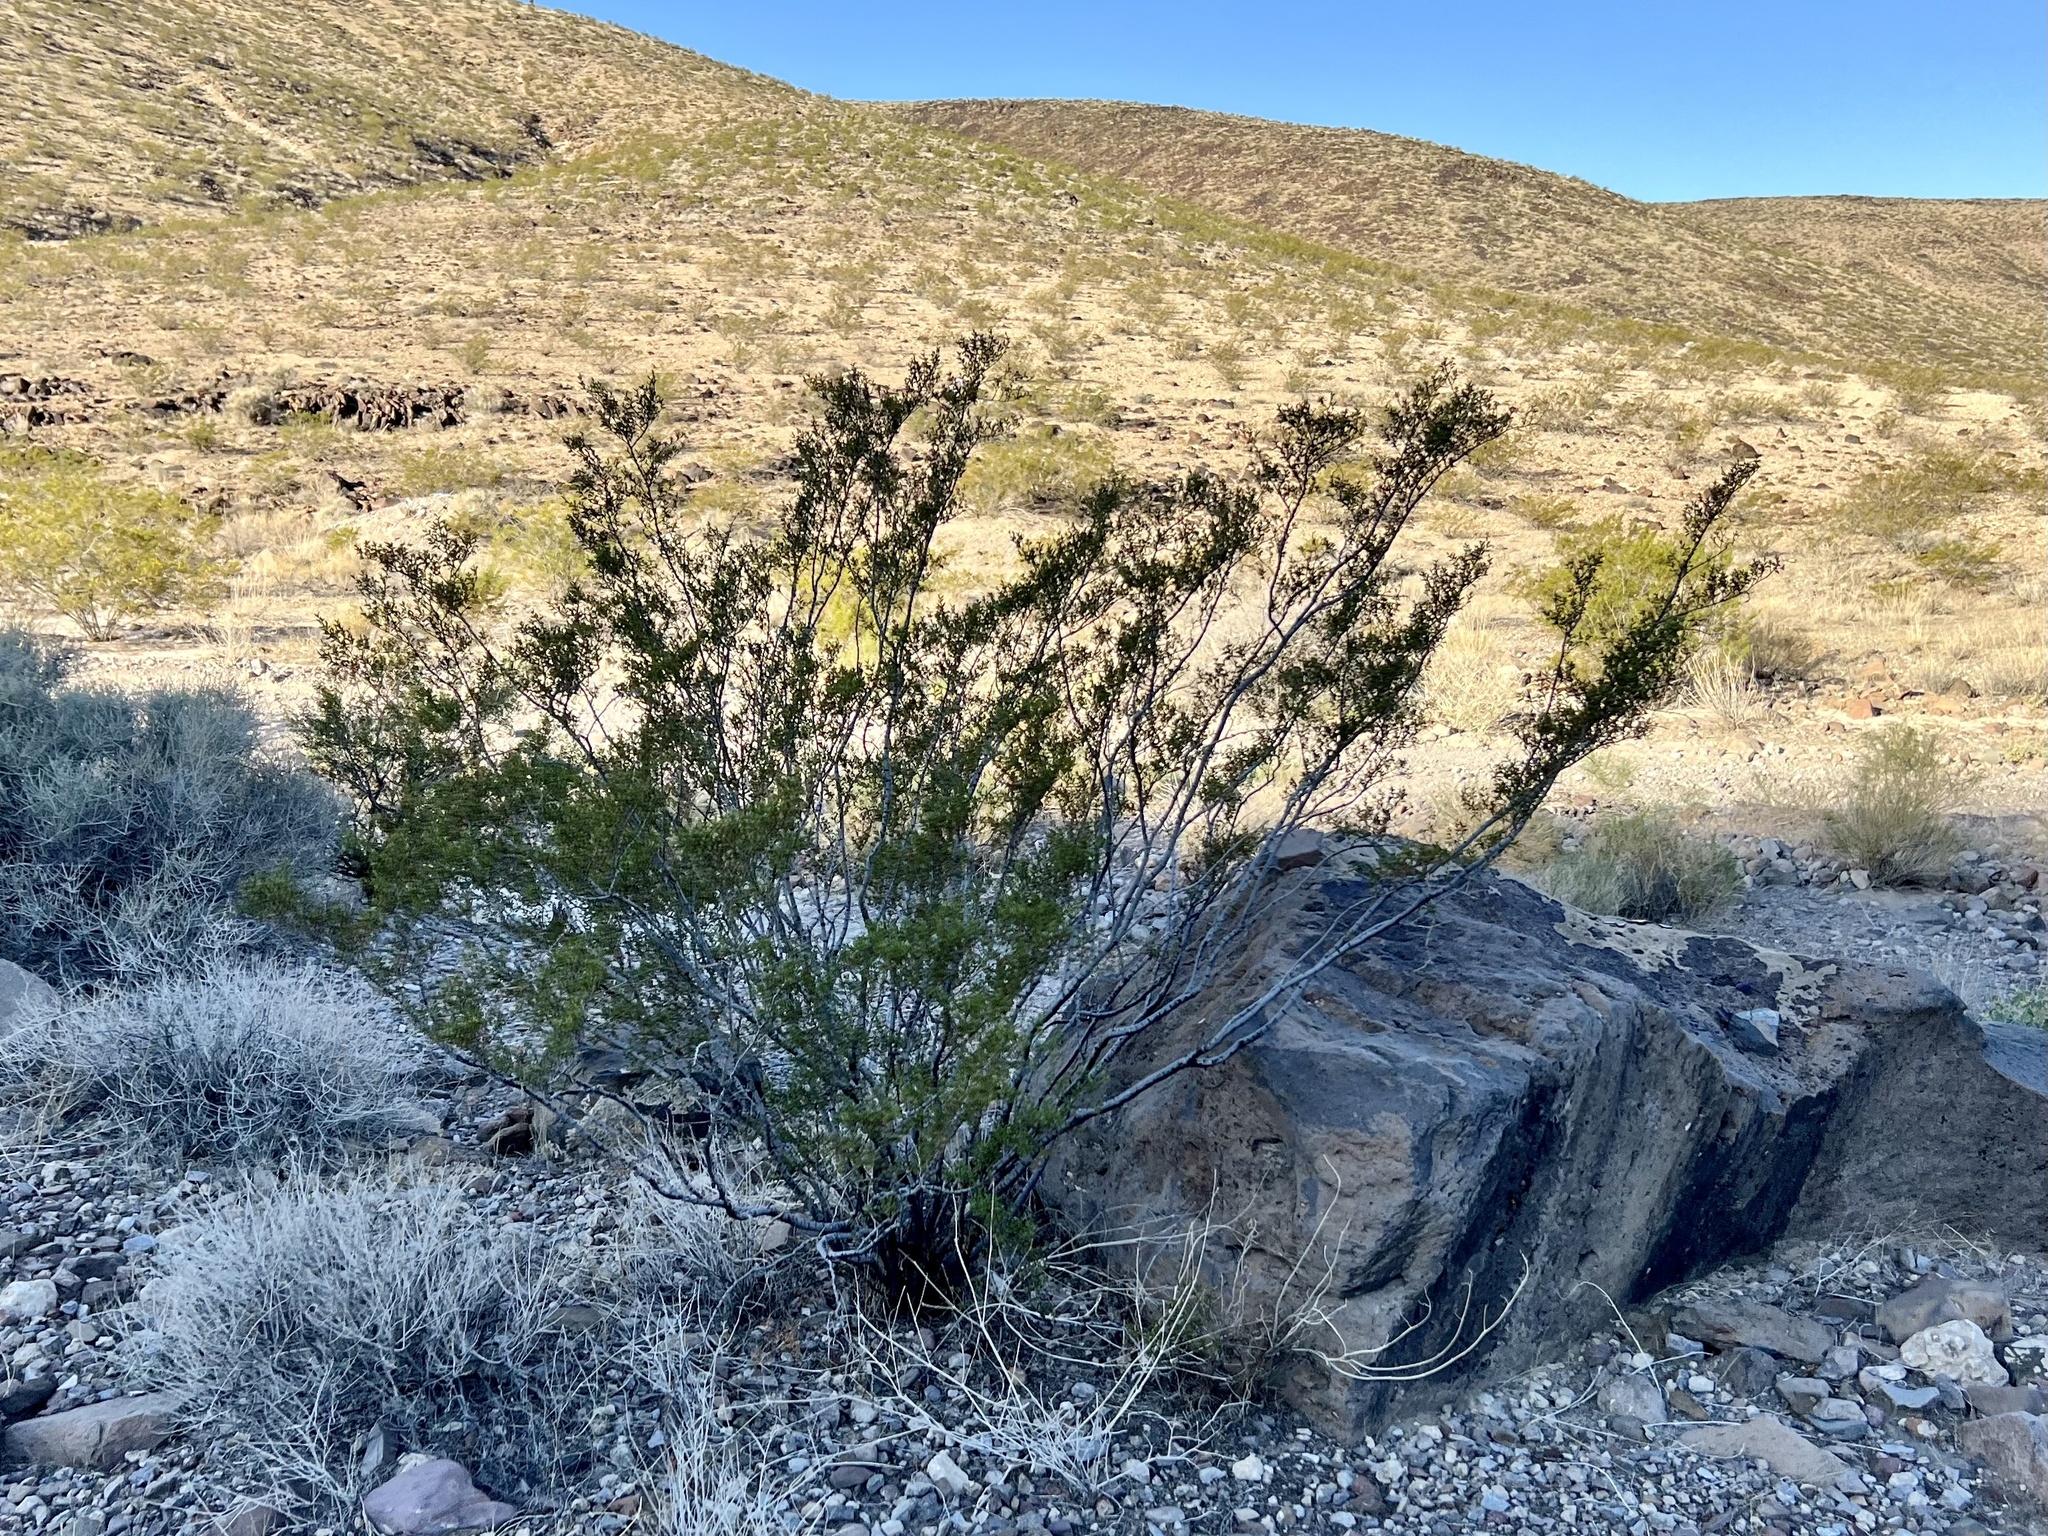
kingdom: Plantae
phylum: Tracheophyta
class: Magnoliopsida
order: Zygophyllales
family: Zygophyllaceae
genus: Larrea
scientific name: Larrea tridentata
